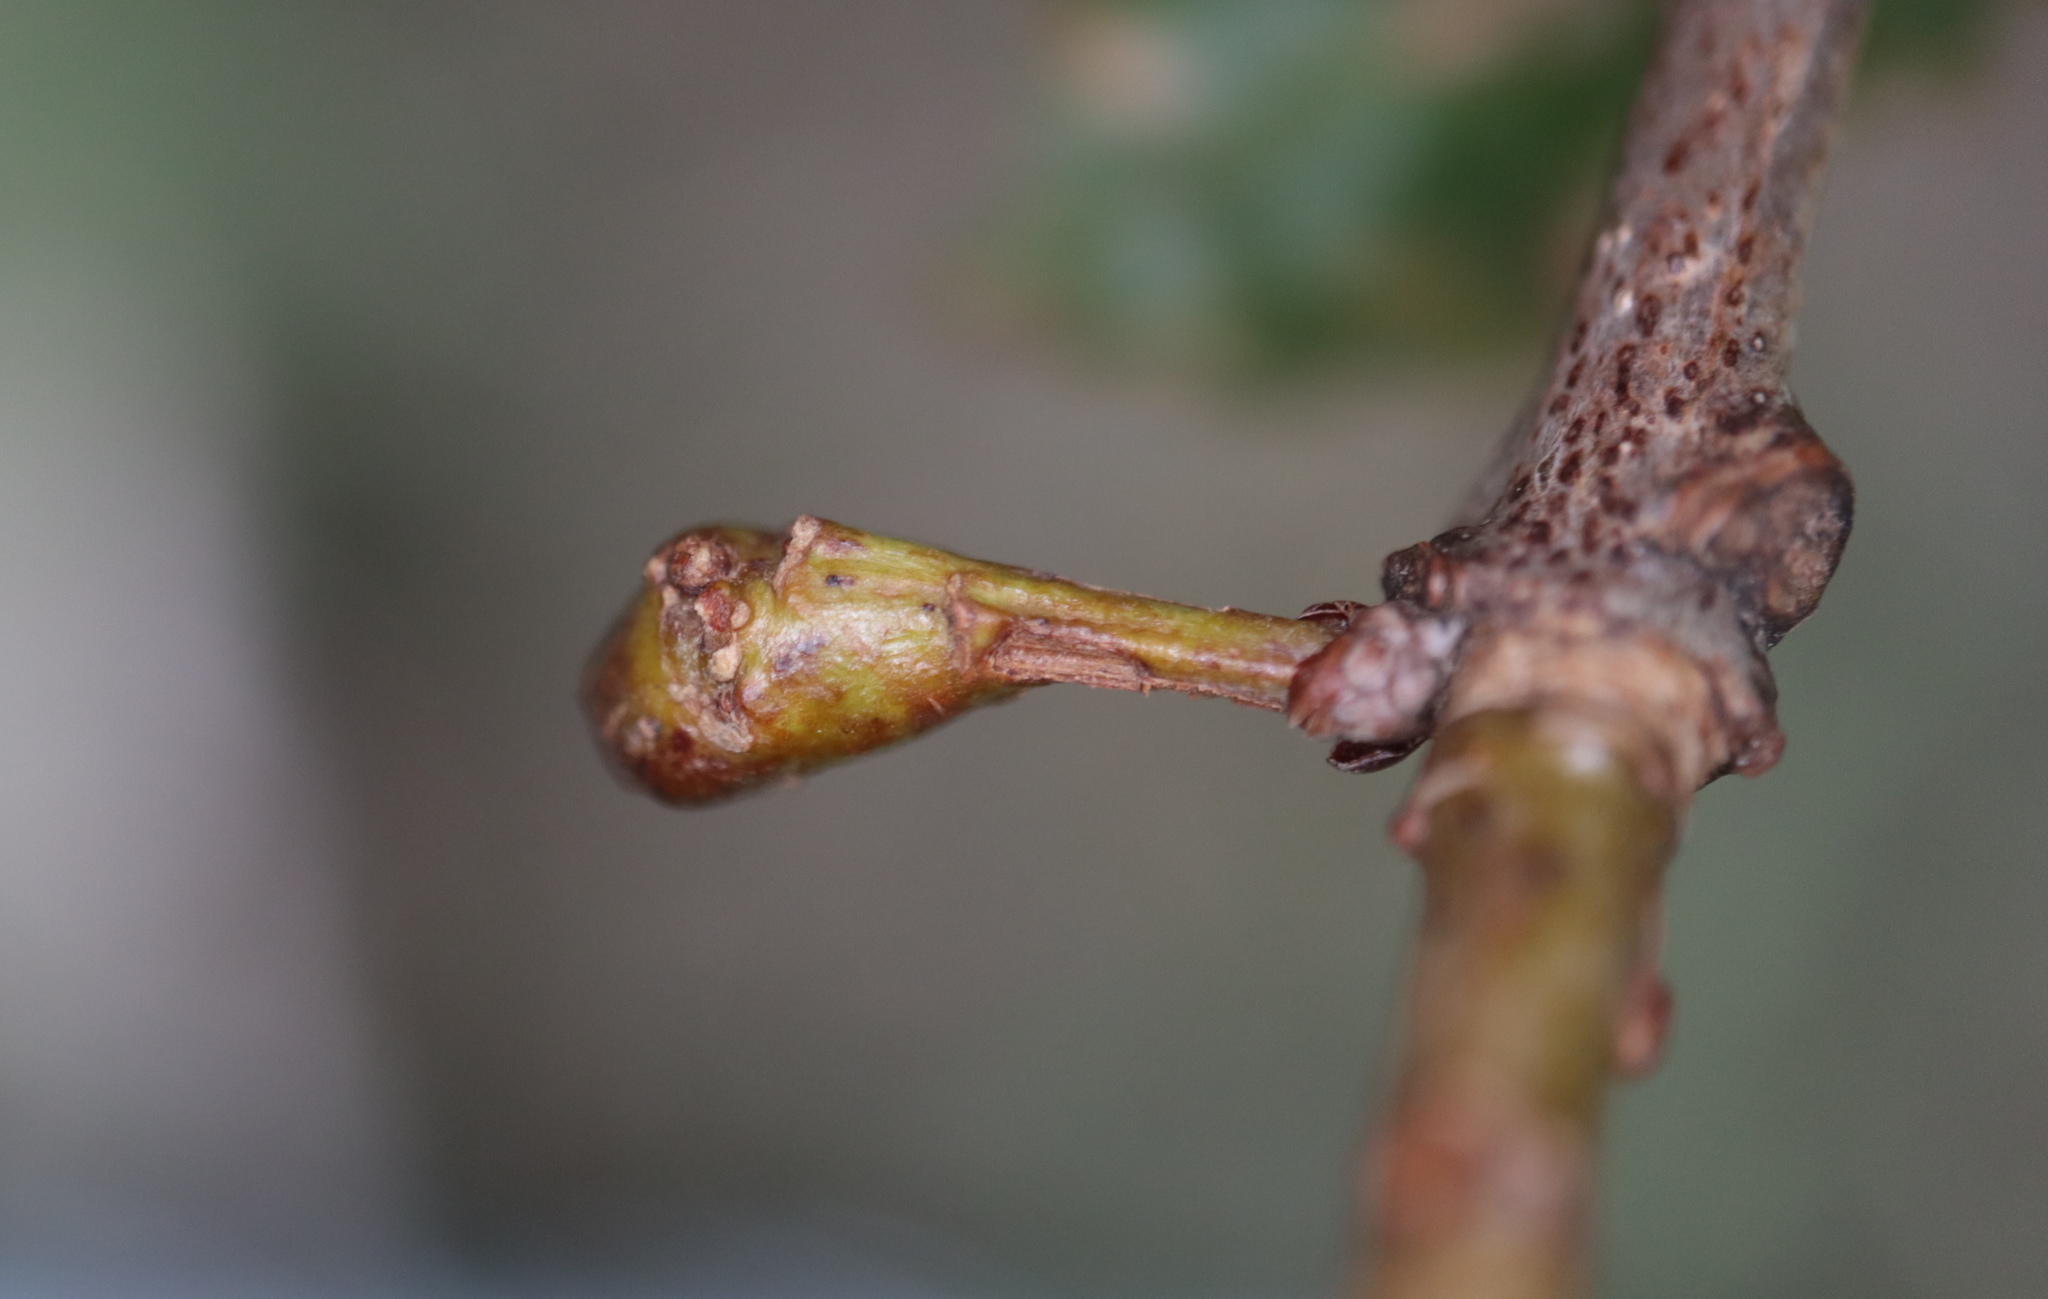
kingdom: Animalia
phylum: Arthropoda
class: Insecta
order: Hymenoptera
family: Cynipidae
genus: Callirhytis
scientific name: Callirhytis clavula
